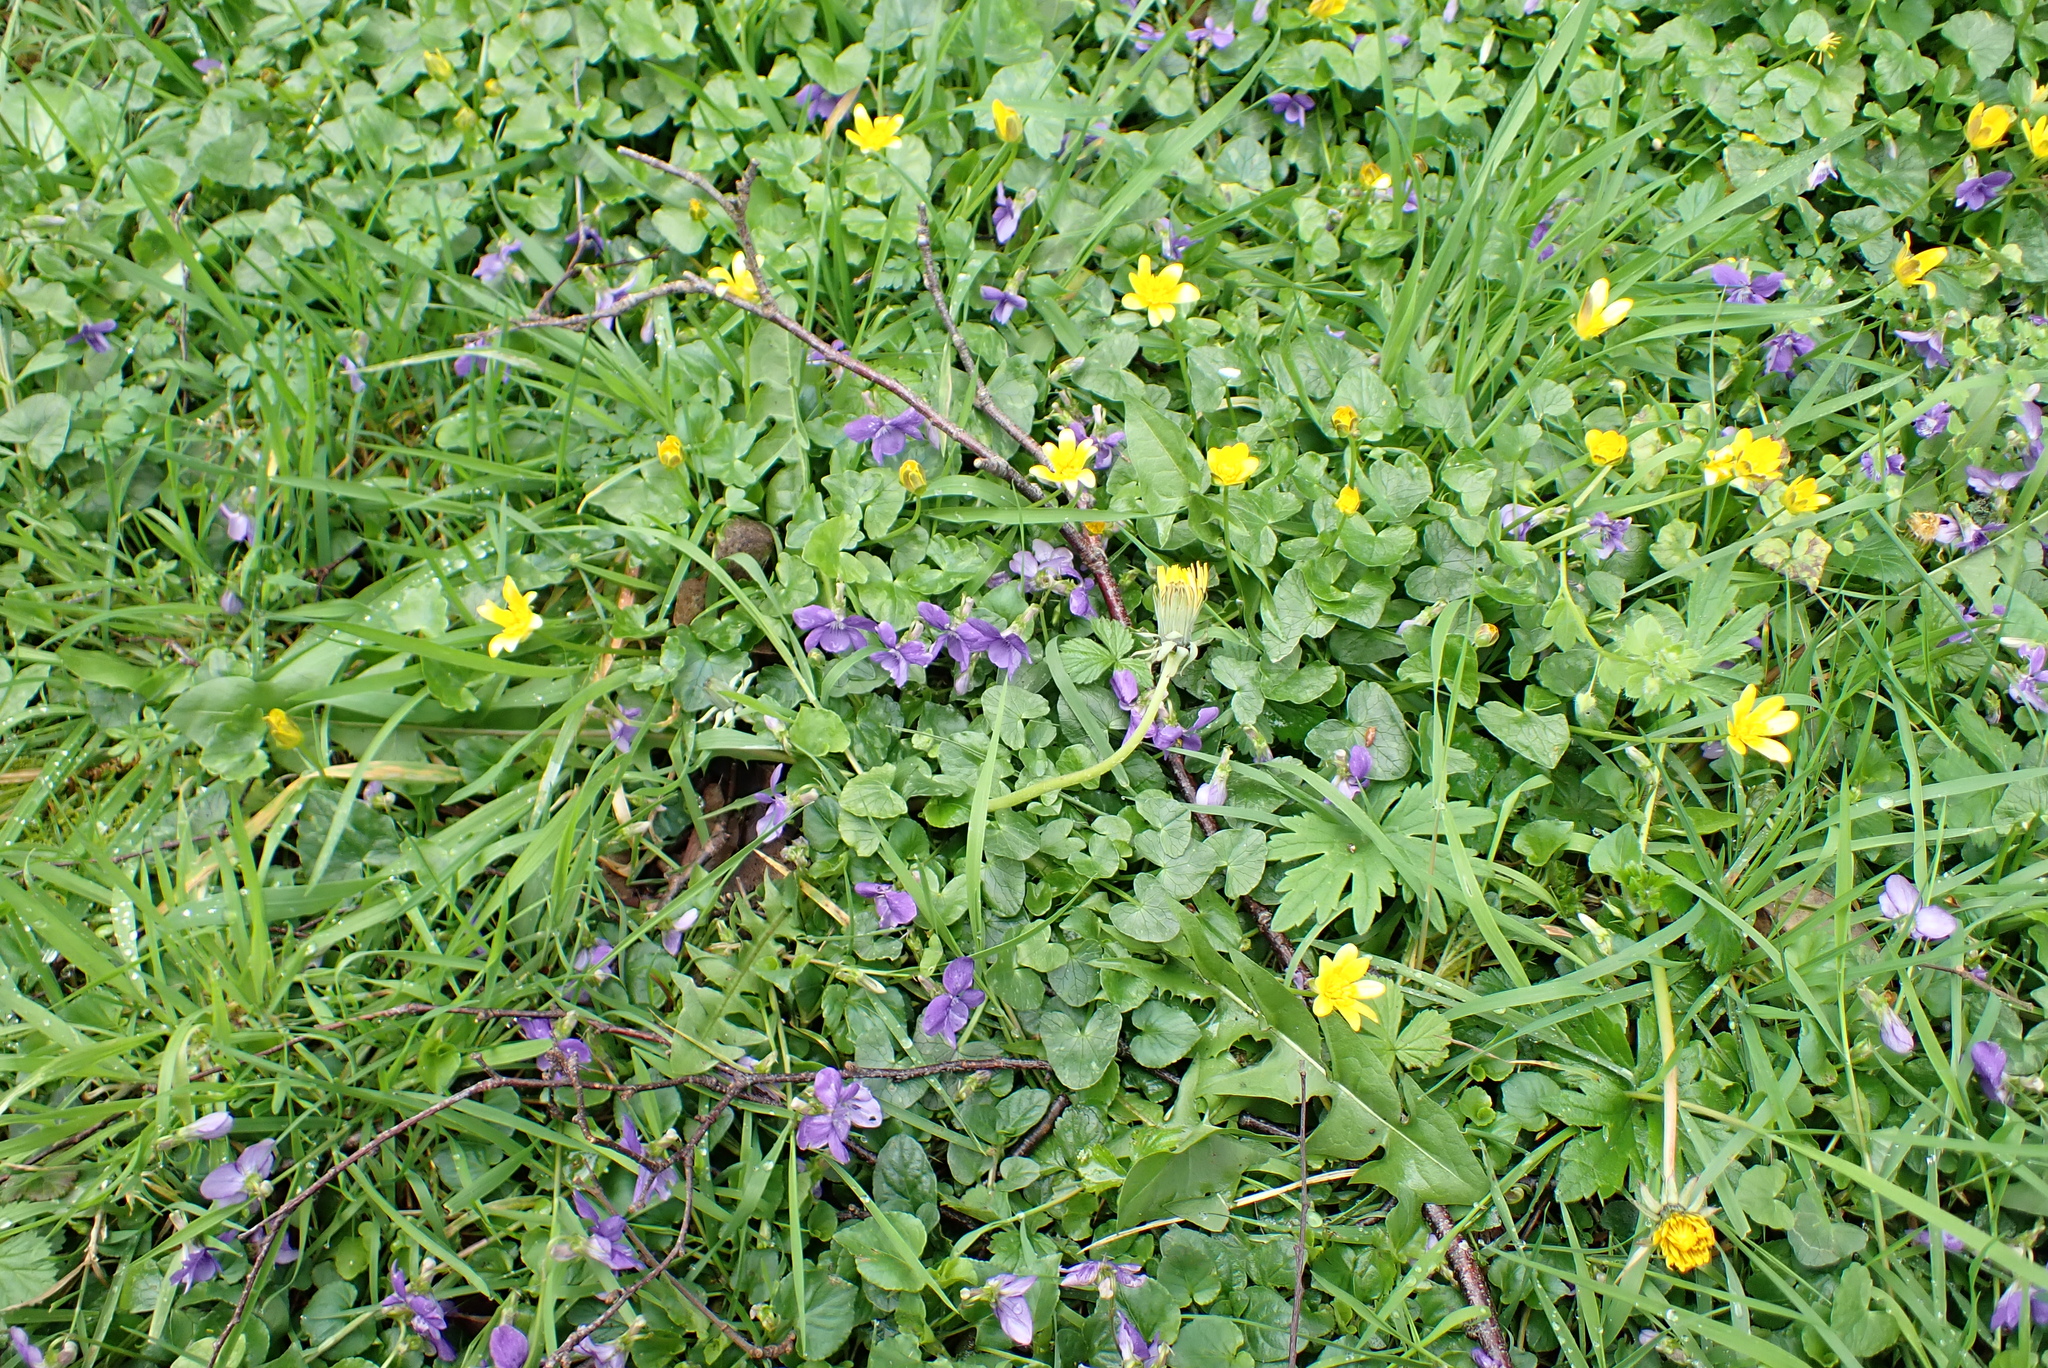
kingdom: Plantae
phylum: Tracheophyta
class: Magnoliopsida
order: Malpighiales
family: Violaceae
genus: Viola
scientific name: Viola riviniana
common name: Common dog-violet
